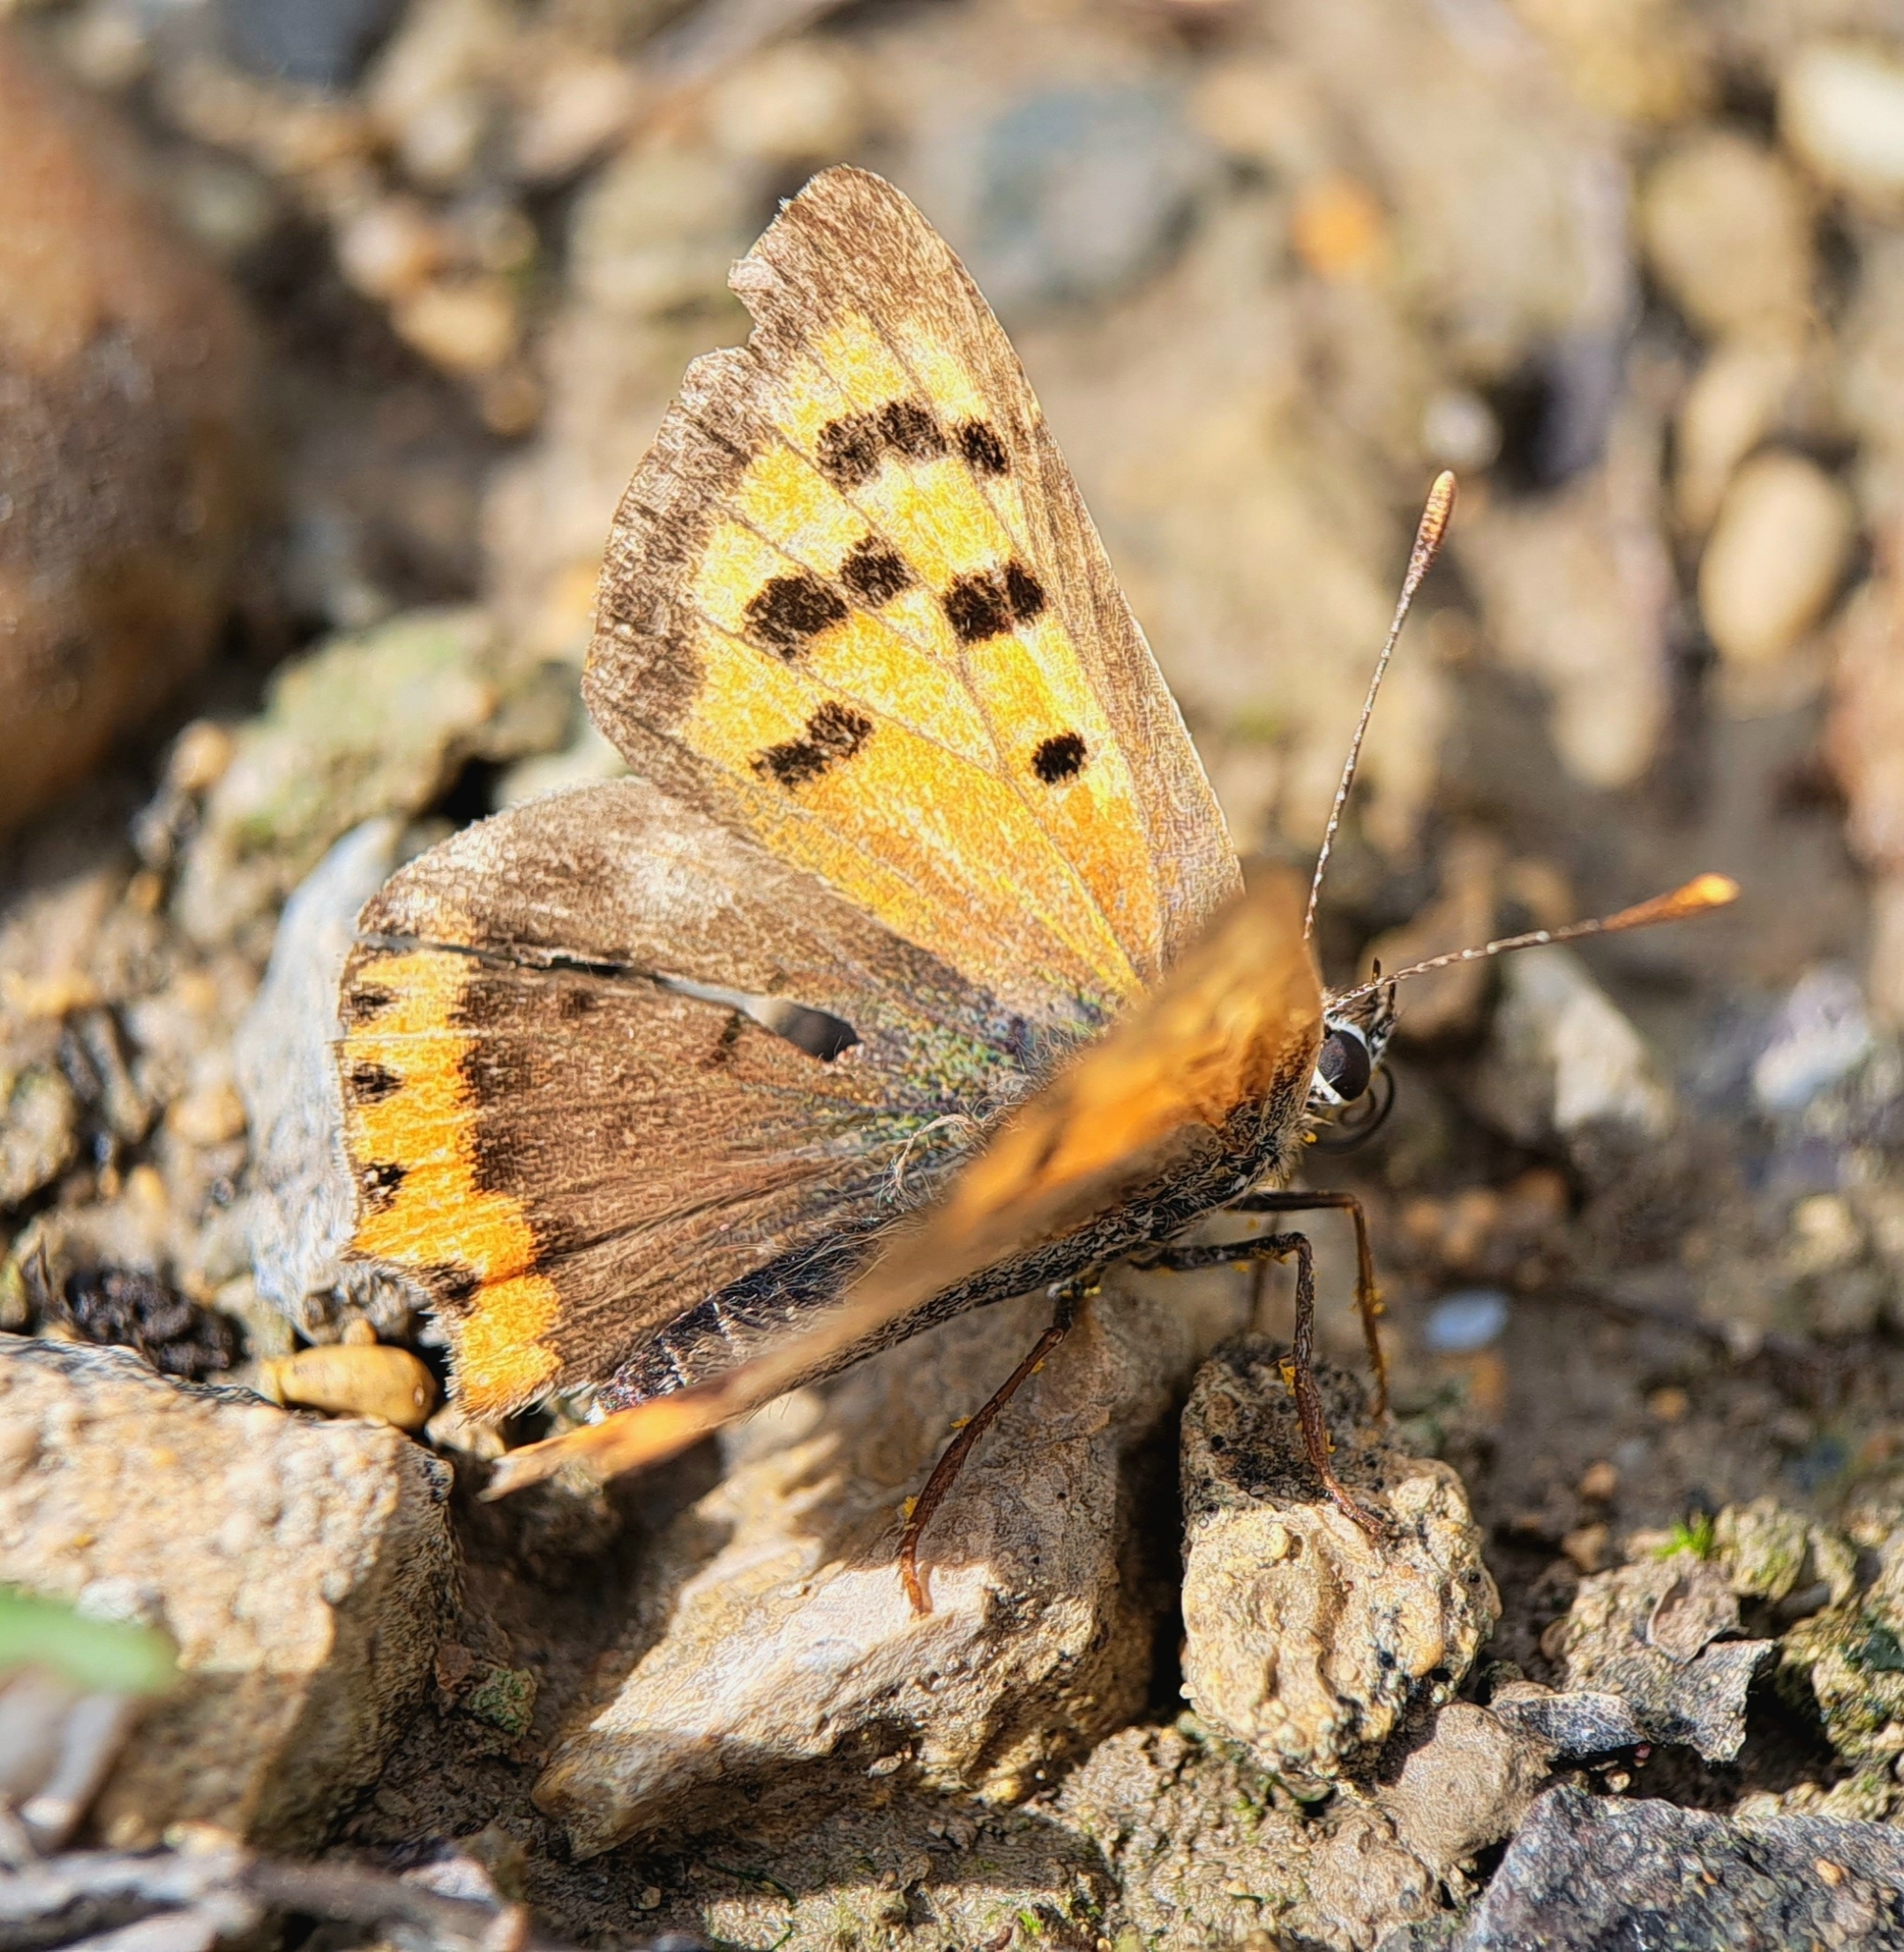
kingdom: Animalia
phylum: Arthropoda
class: Insecta
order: Lepidoptera
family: Lycaenidae
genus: Lycaena
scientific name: Lycaena phlaeas
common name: Small copper
